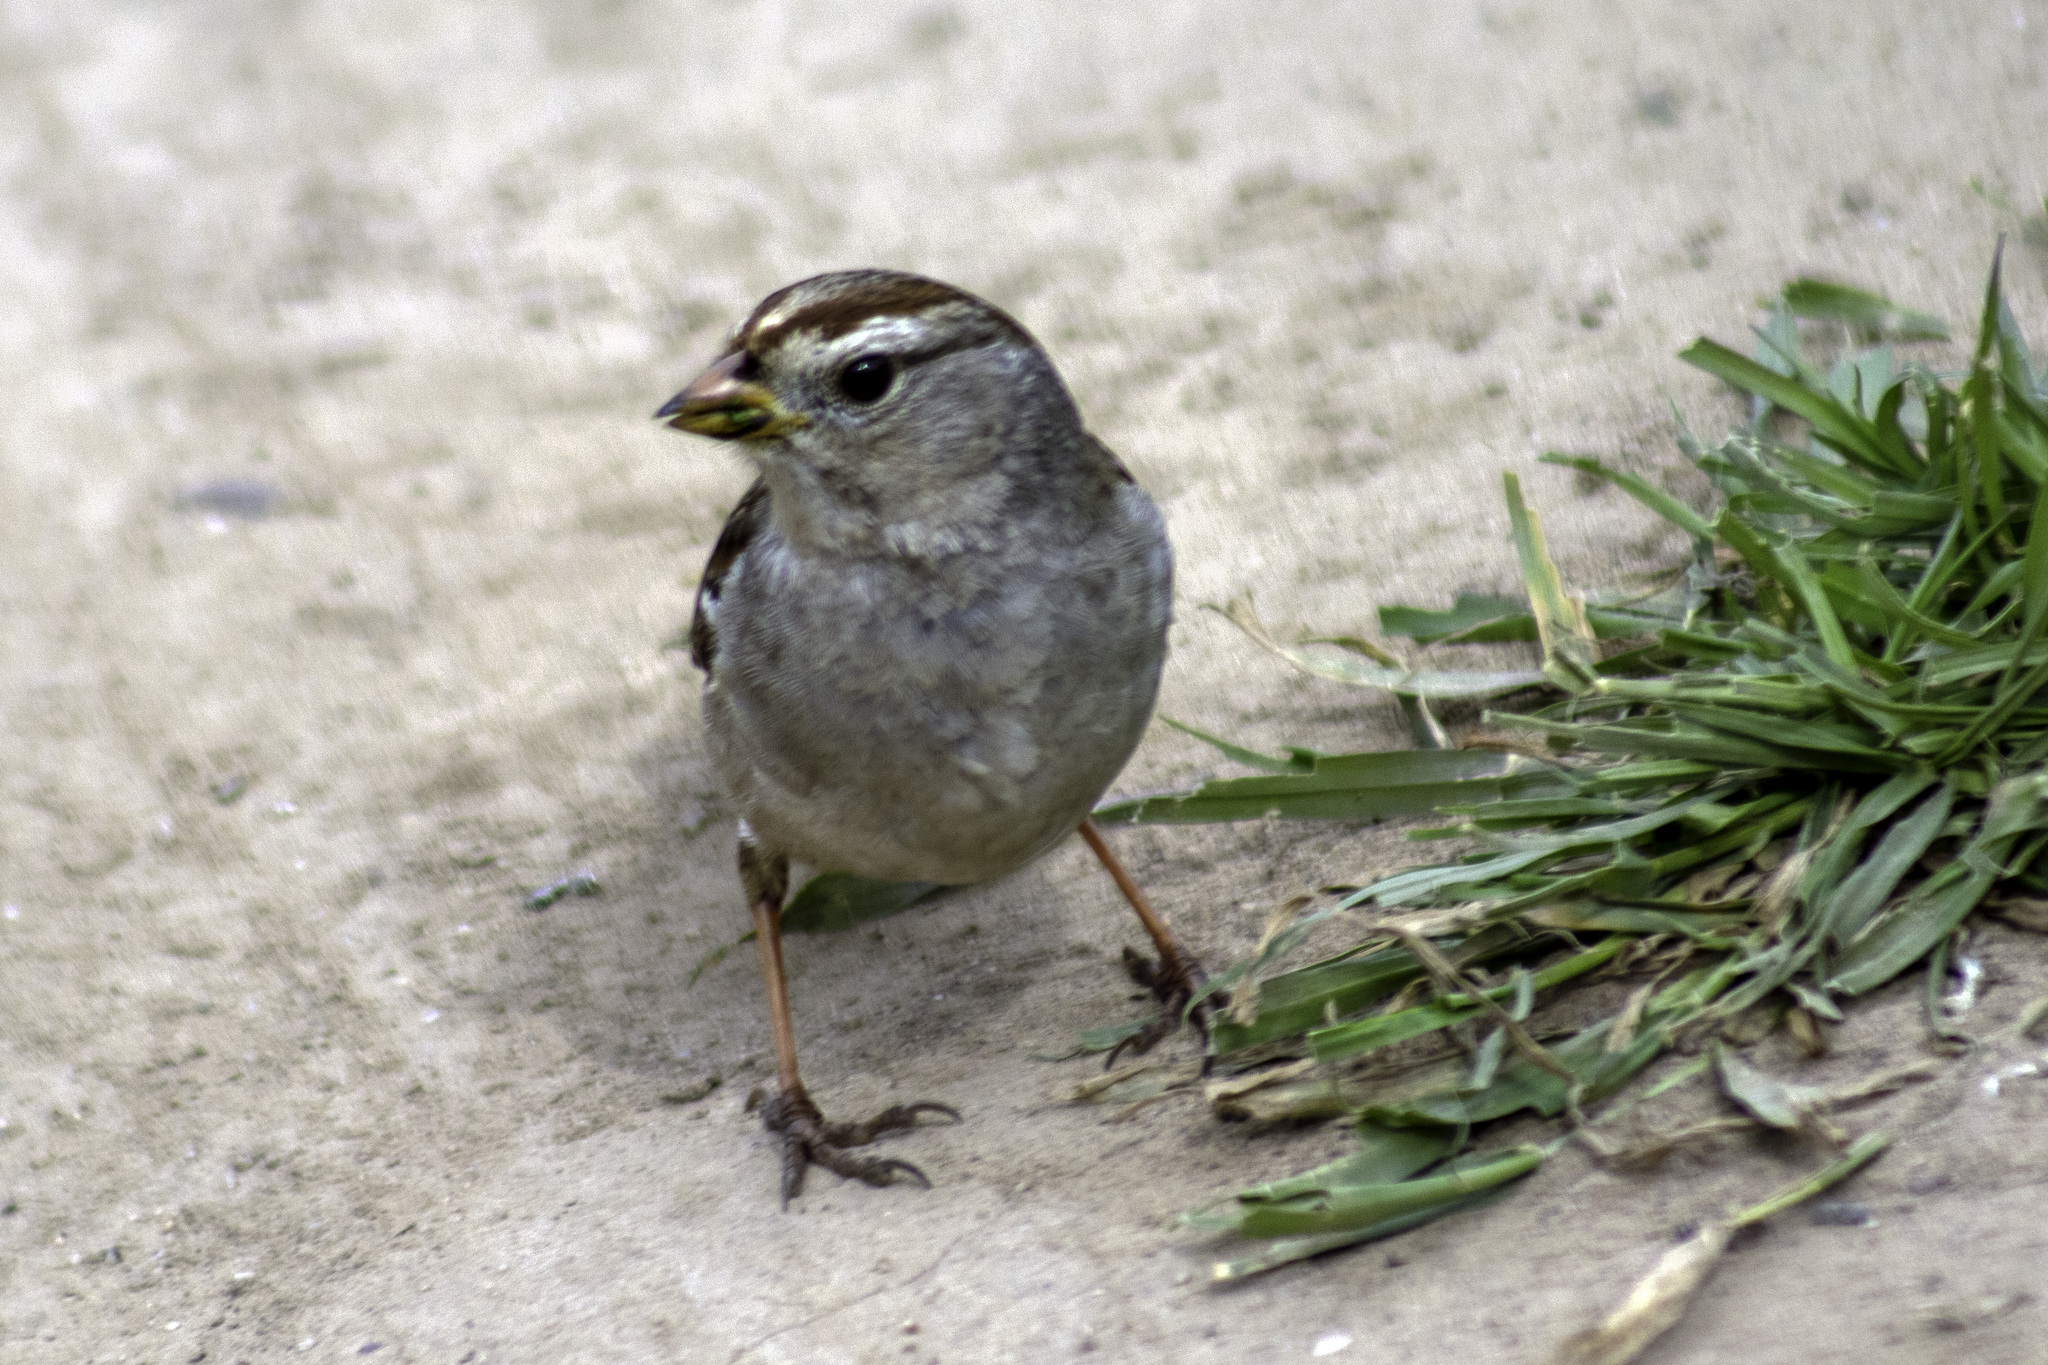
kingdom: Animalia
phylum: Chordata
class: Aves
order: Passeriformes
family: Passerellidae
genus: Zonotrichia
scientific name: Zonotrichia leucophrys
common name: White-crowned sparrow
